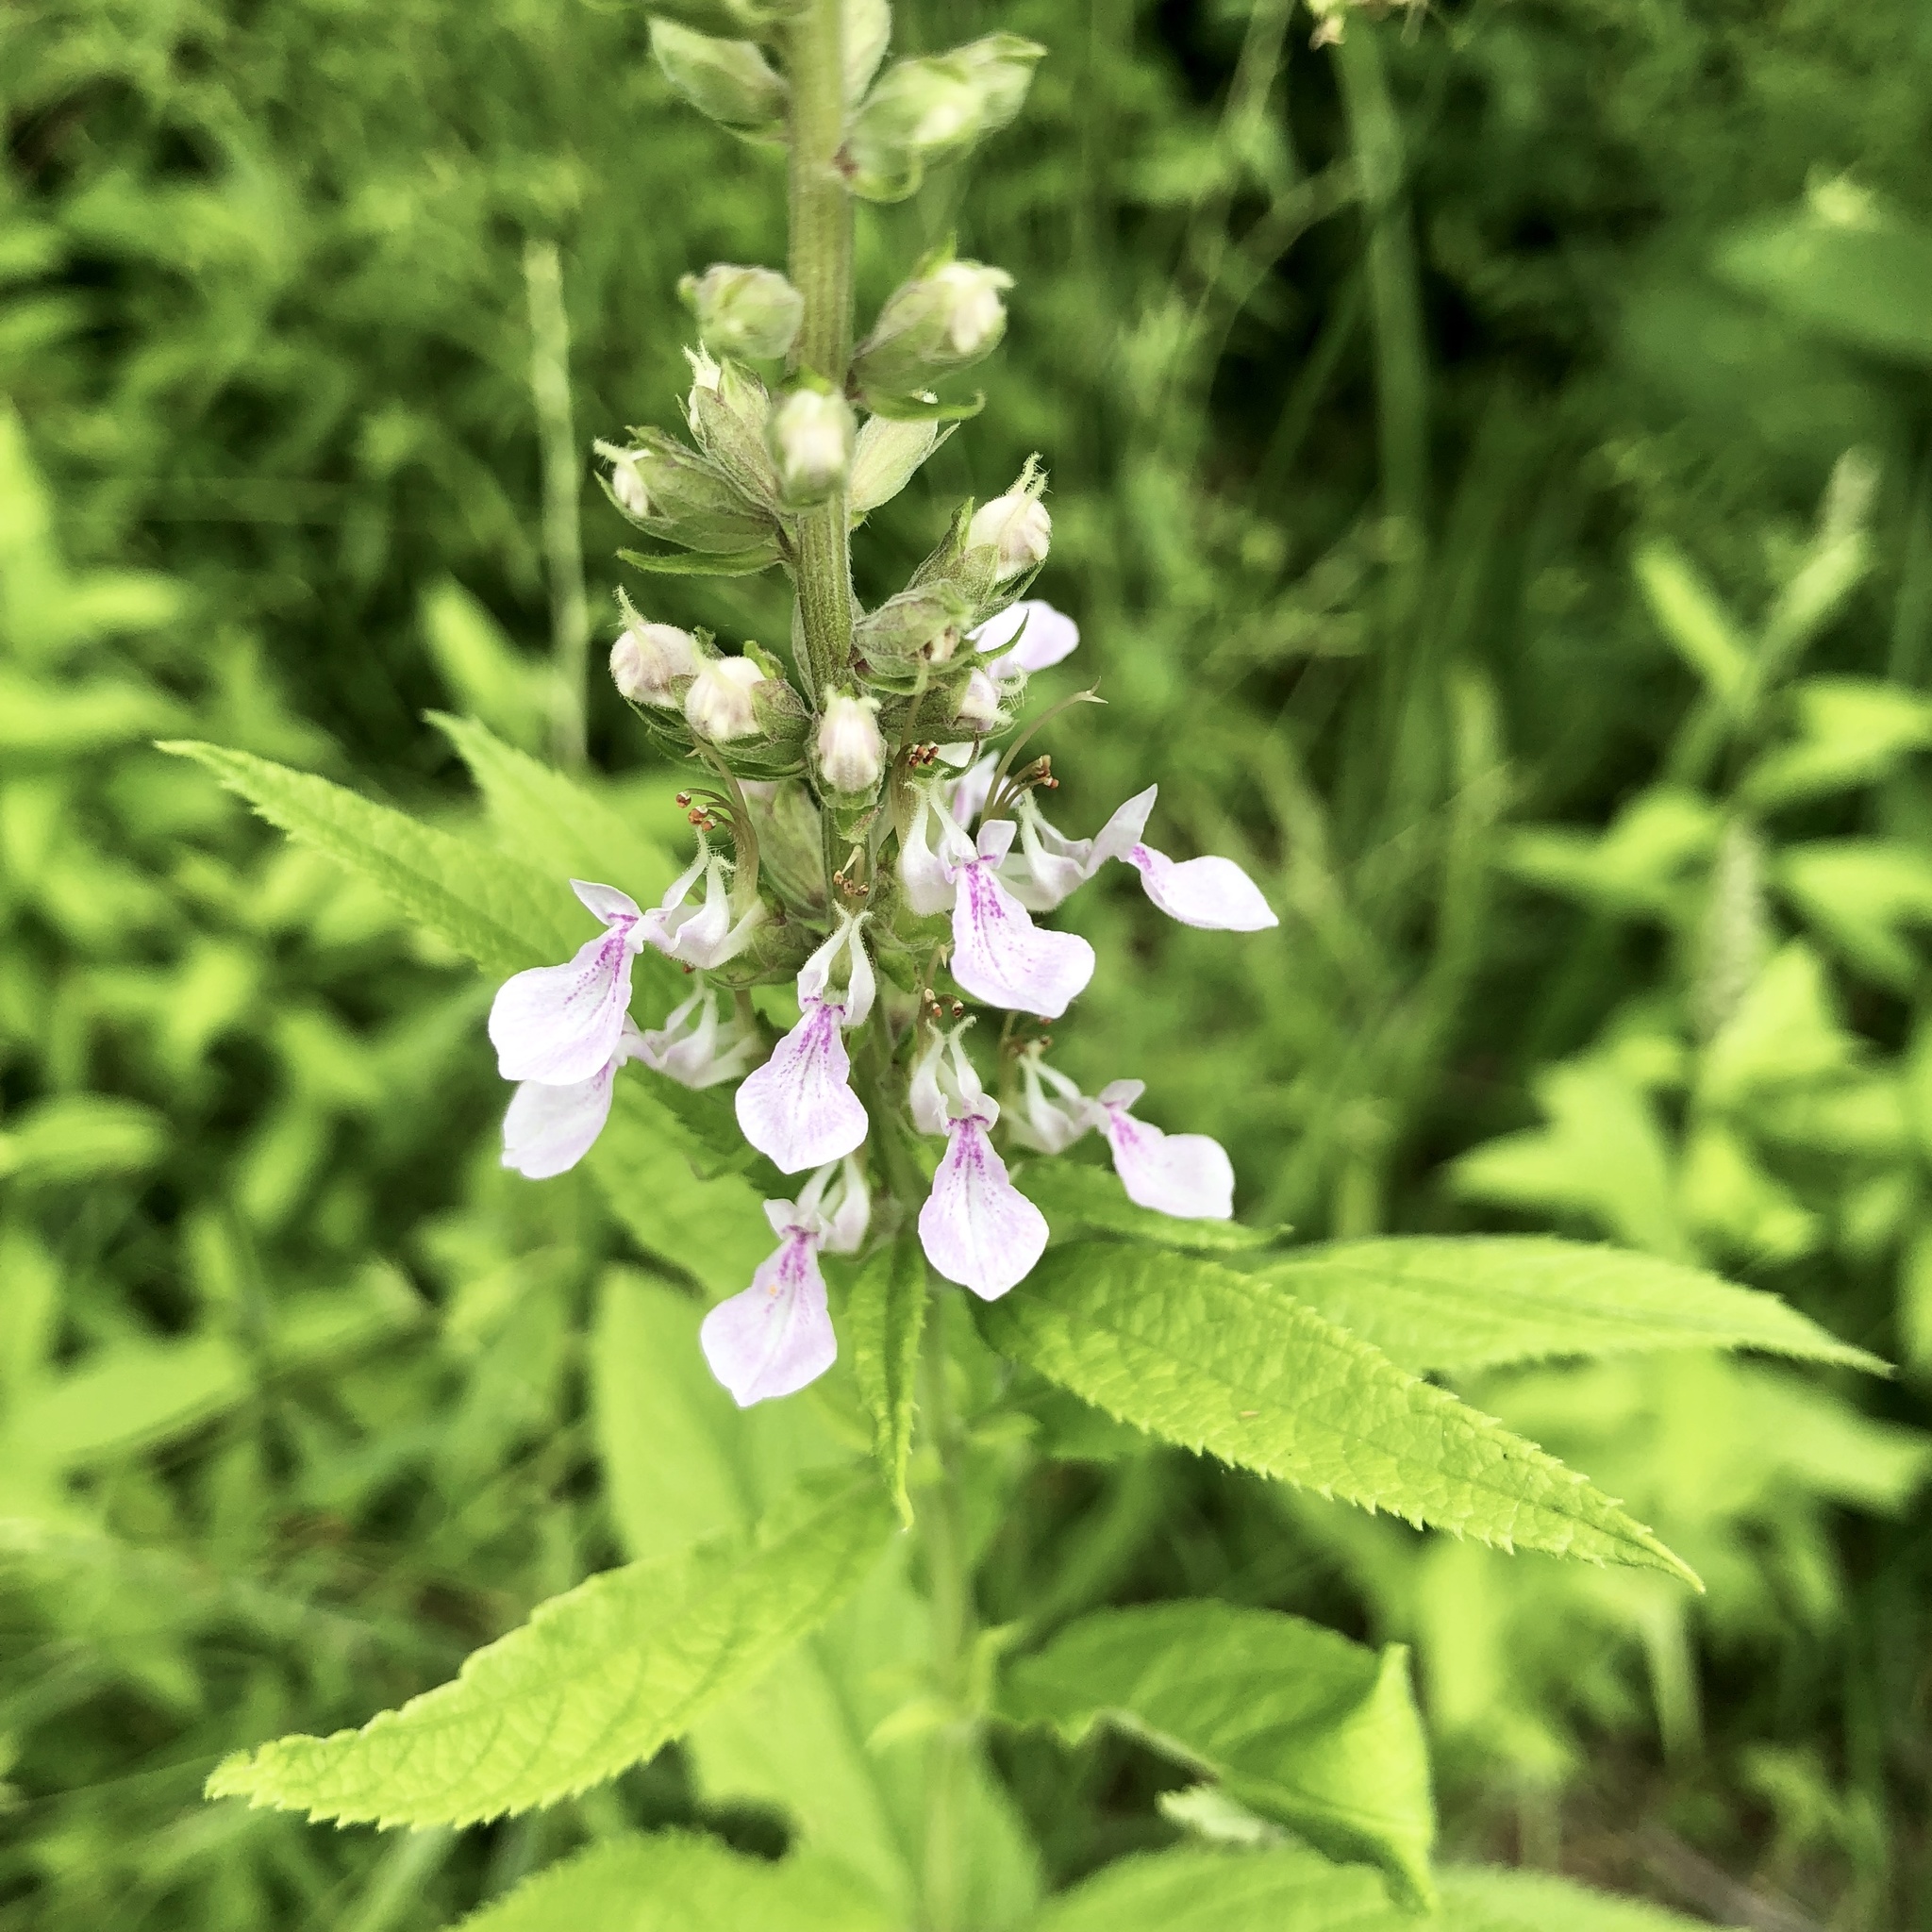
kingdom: Plantae
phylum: Tracheophyta
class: Magnoliopsida
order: Lamiales
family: Lamiaceae
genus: Teucrium
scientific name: Teucrium canadense
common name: American germander
